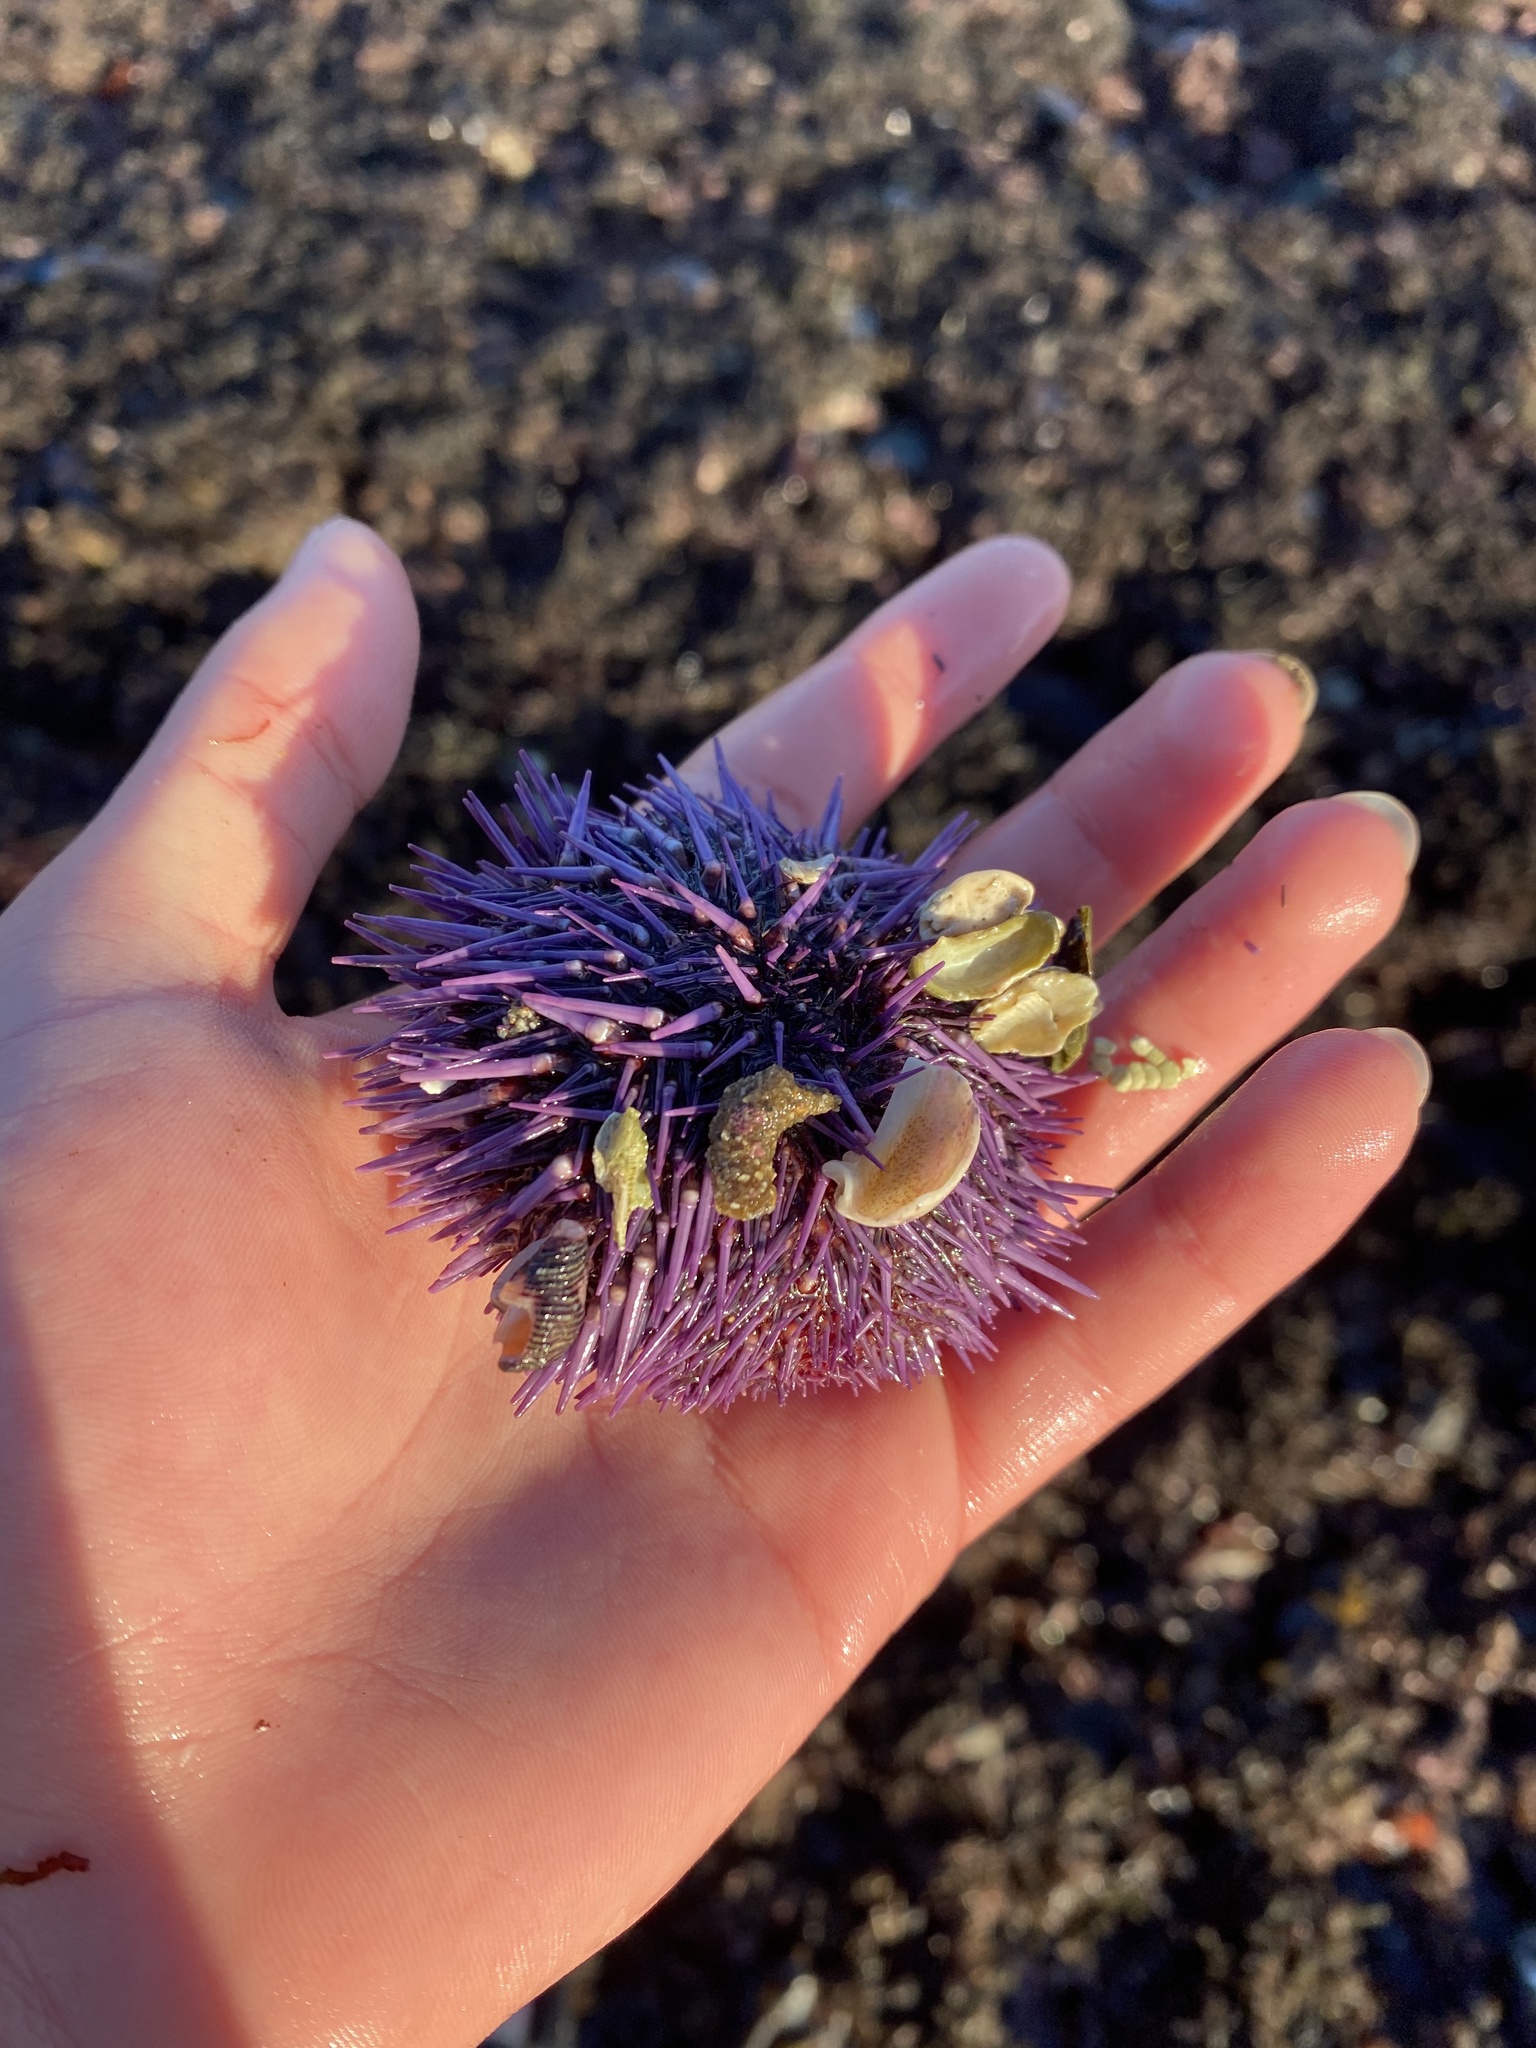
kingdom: Animalia
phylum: Echinodermata
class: Echinoidea
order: Camarodonta
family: Strongylocentrotidae
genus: Strongylocentrotus
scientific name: Strongylocentrotus purpuratus
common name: Purple sea urchin
